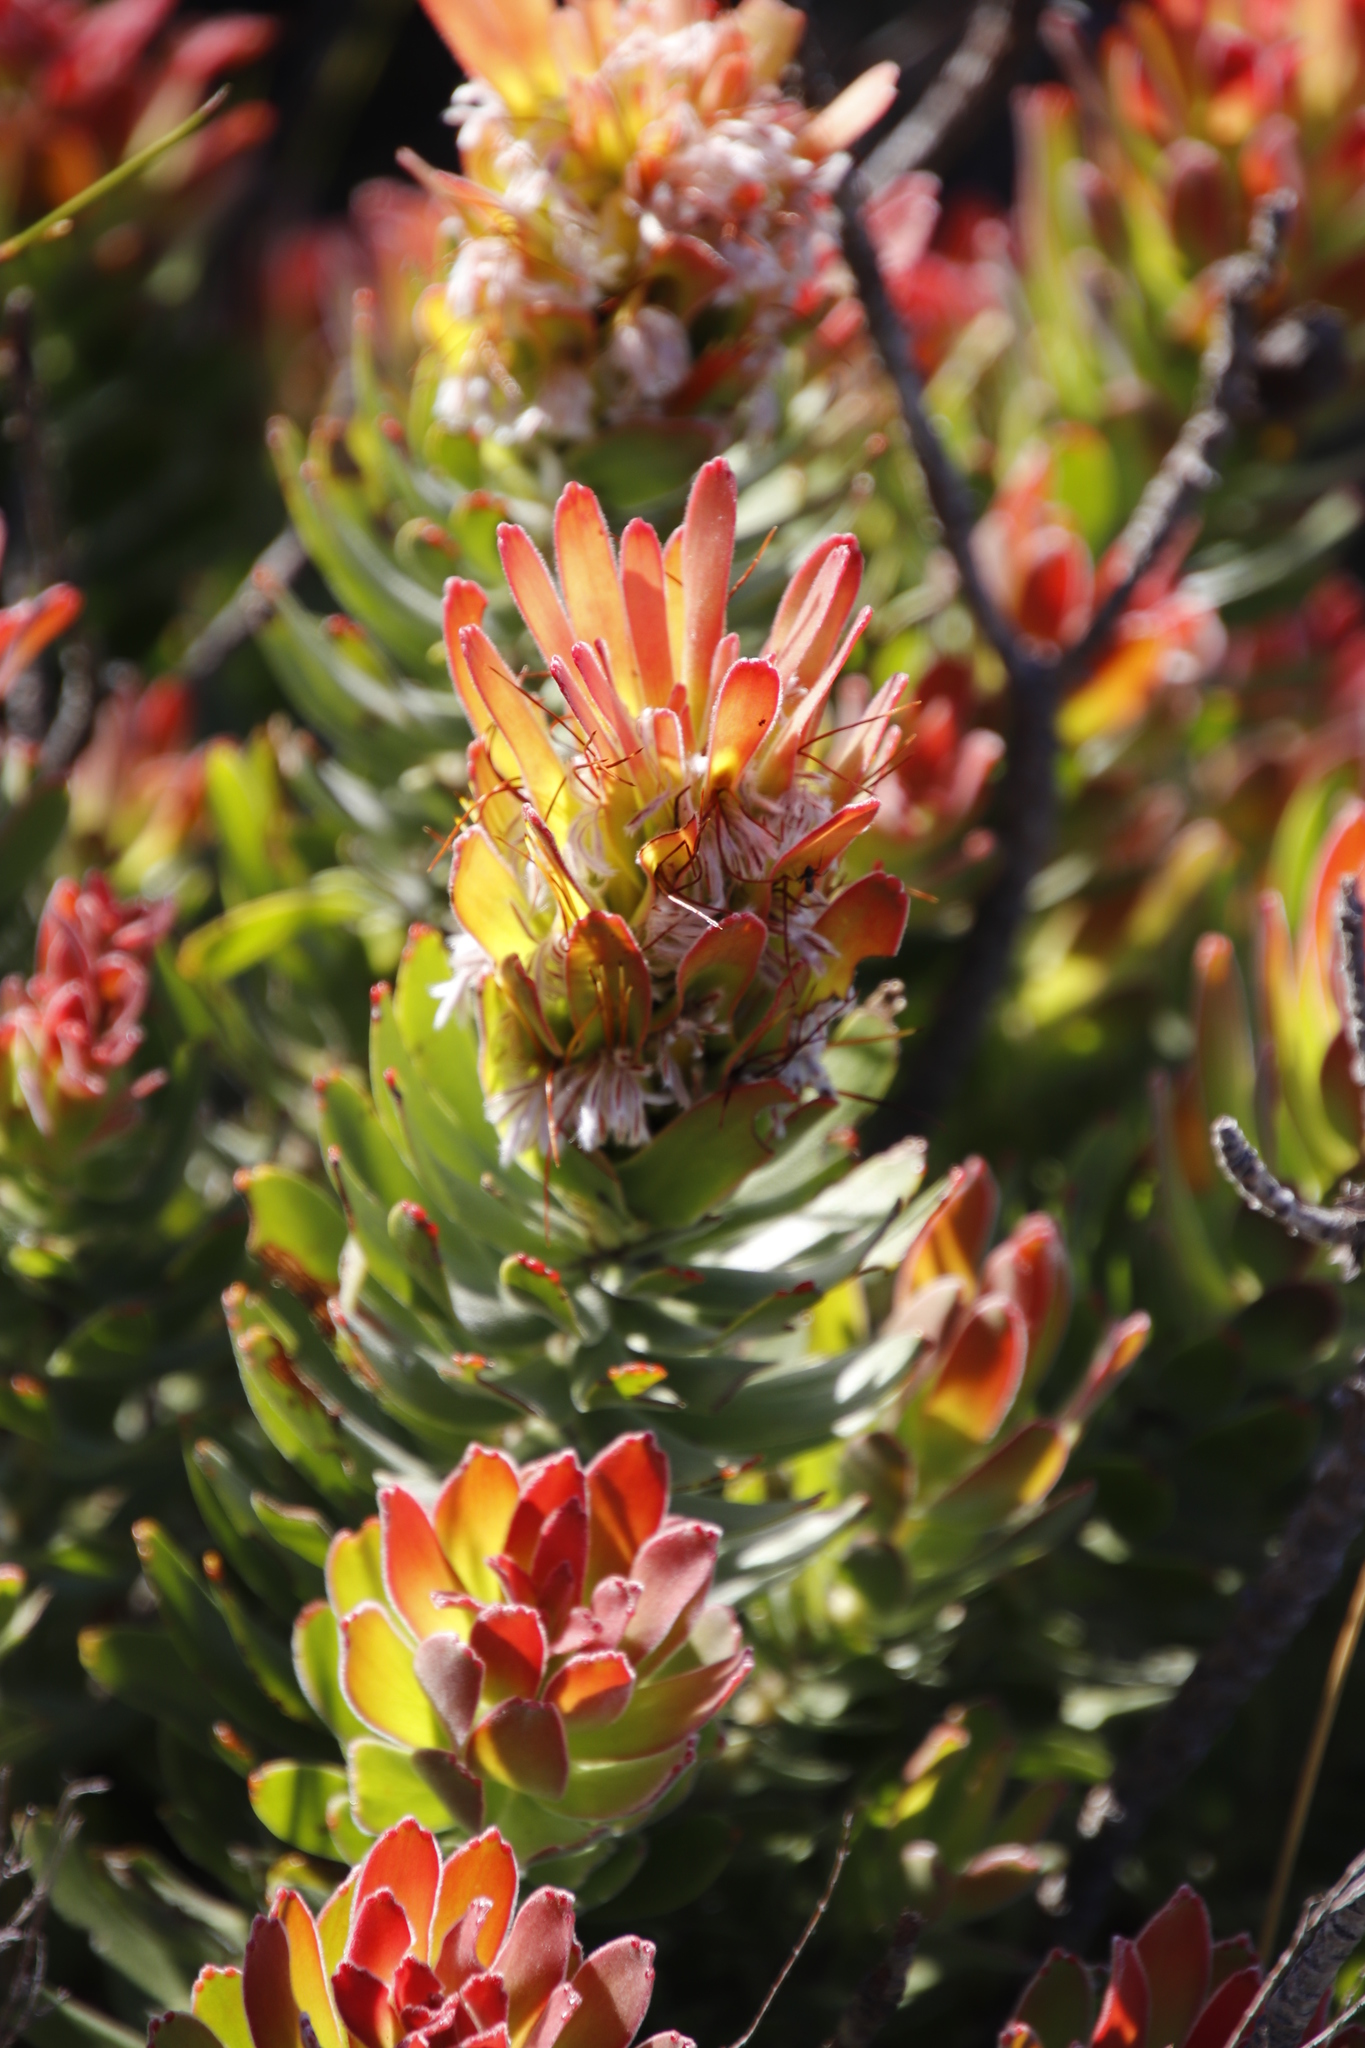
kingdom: Plantae
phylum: Tracheophyta
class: Magnoliopsida
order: Proteales
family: Proteaceae
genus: Mimetes
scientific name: Mimetes cucullatus
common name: Common pagoda
